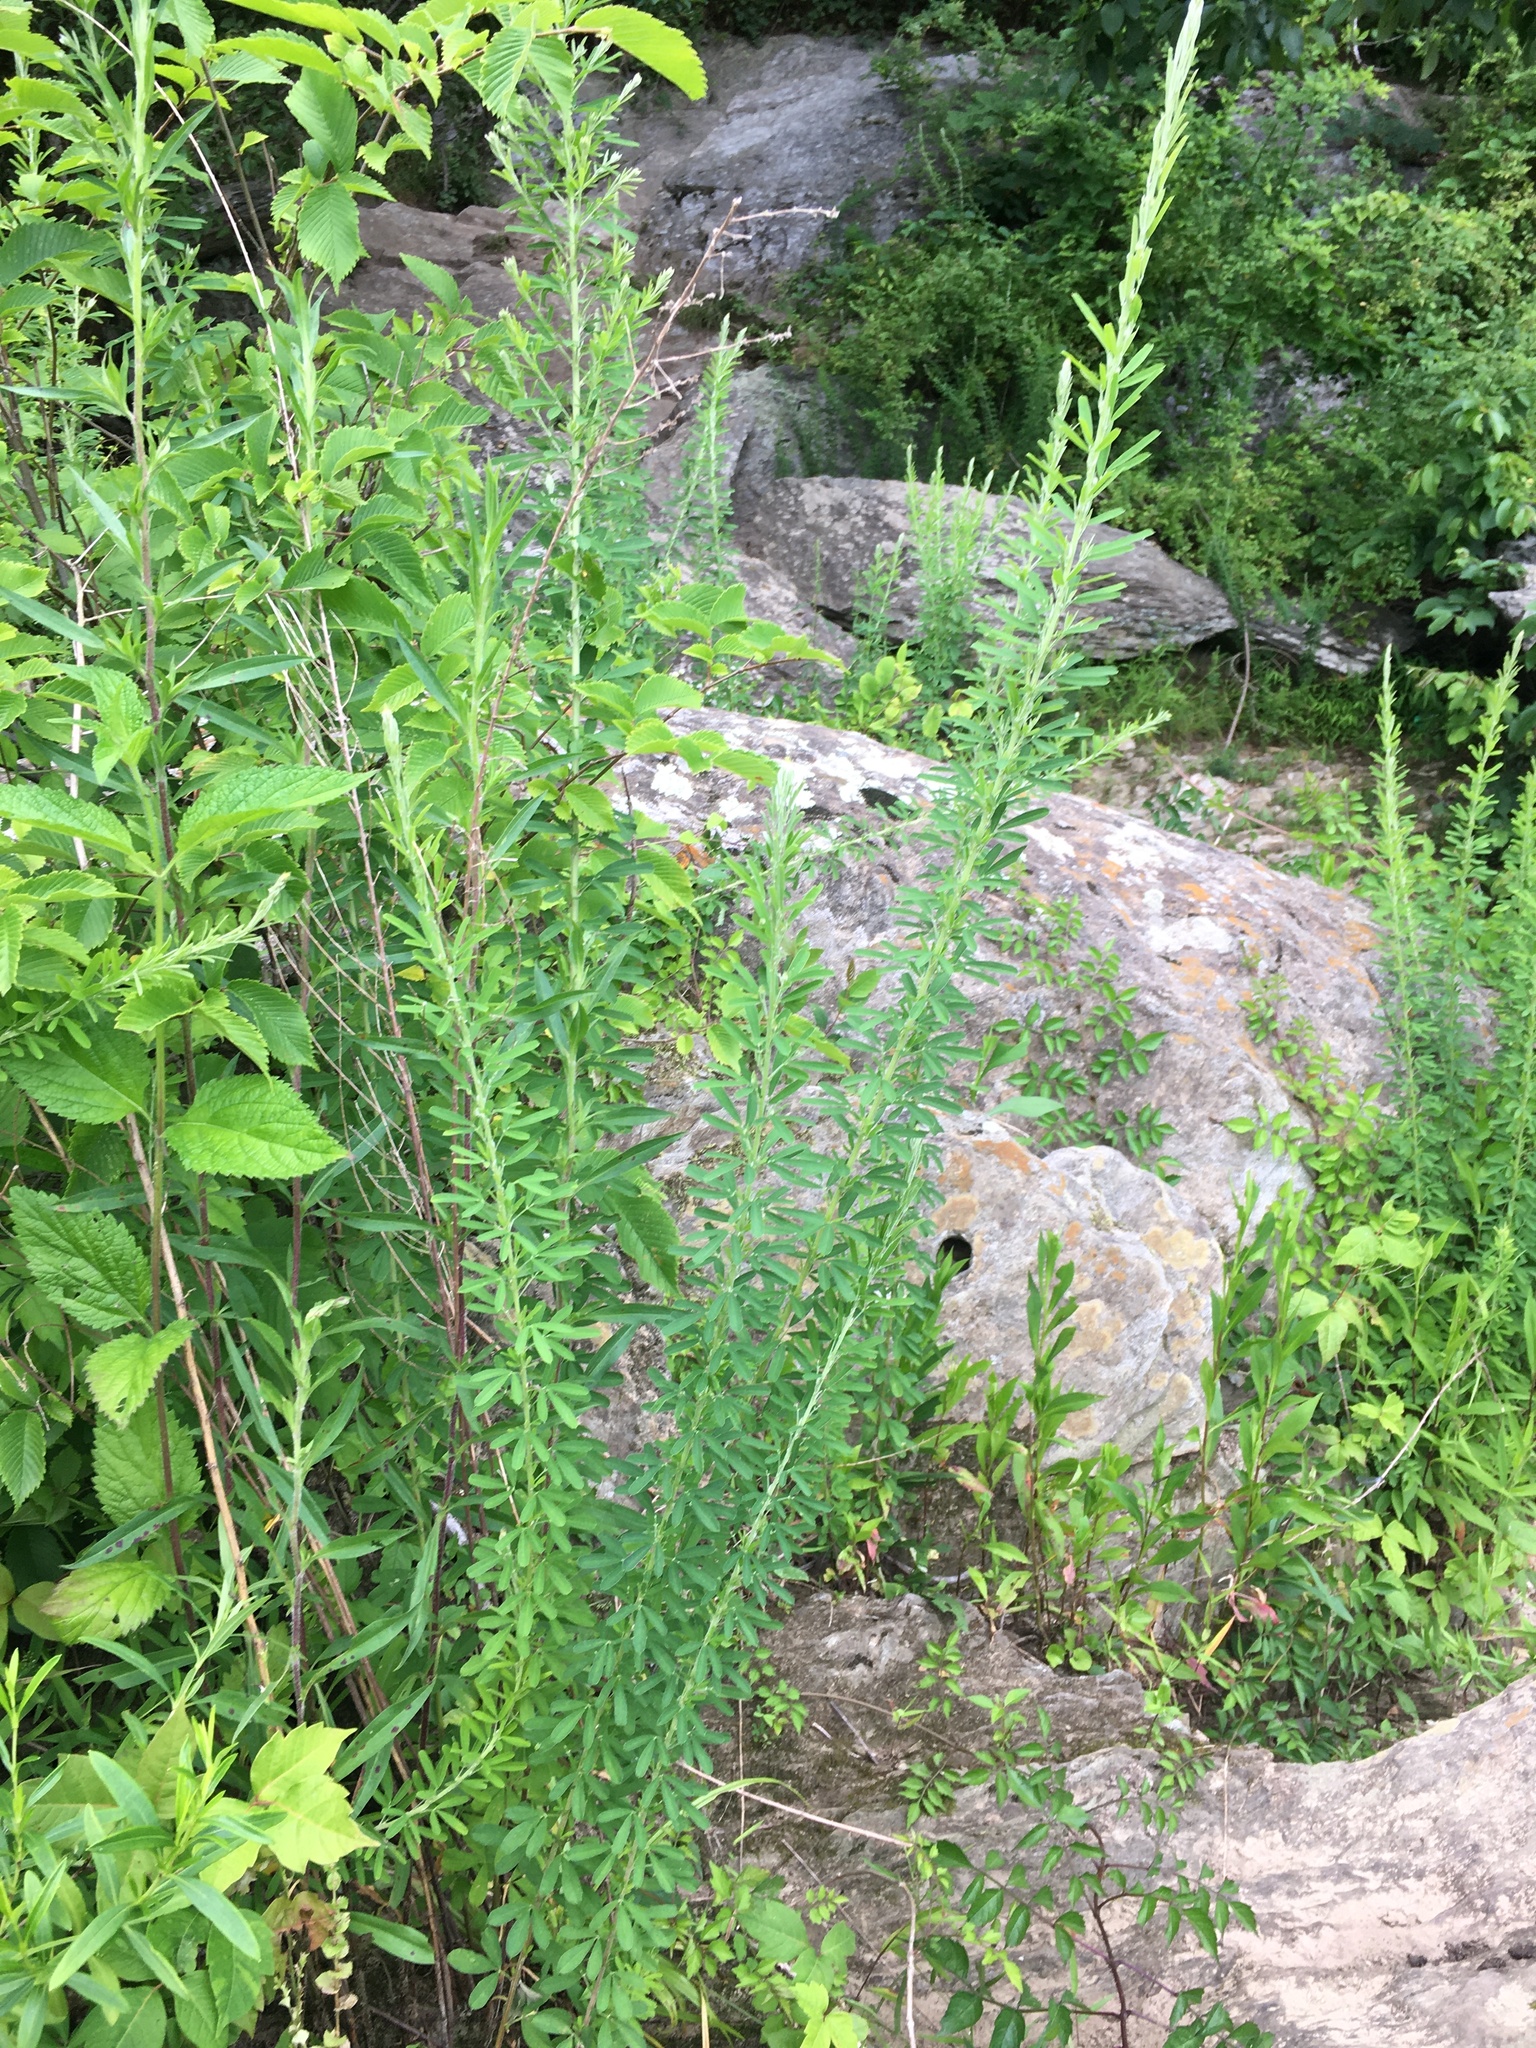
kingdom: Plantae
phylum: Tracheophyta
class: Magnoliopsida
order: Fabales
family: Fabaceae
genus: Lespedeza
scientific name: Lespedeza cuneata
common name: Chinese bush-clover
